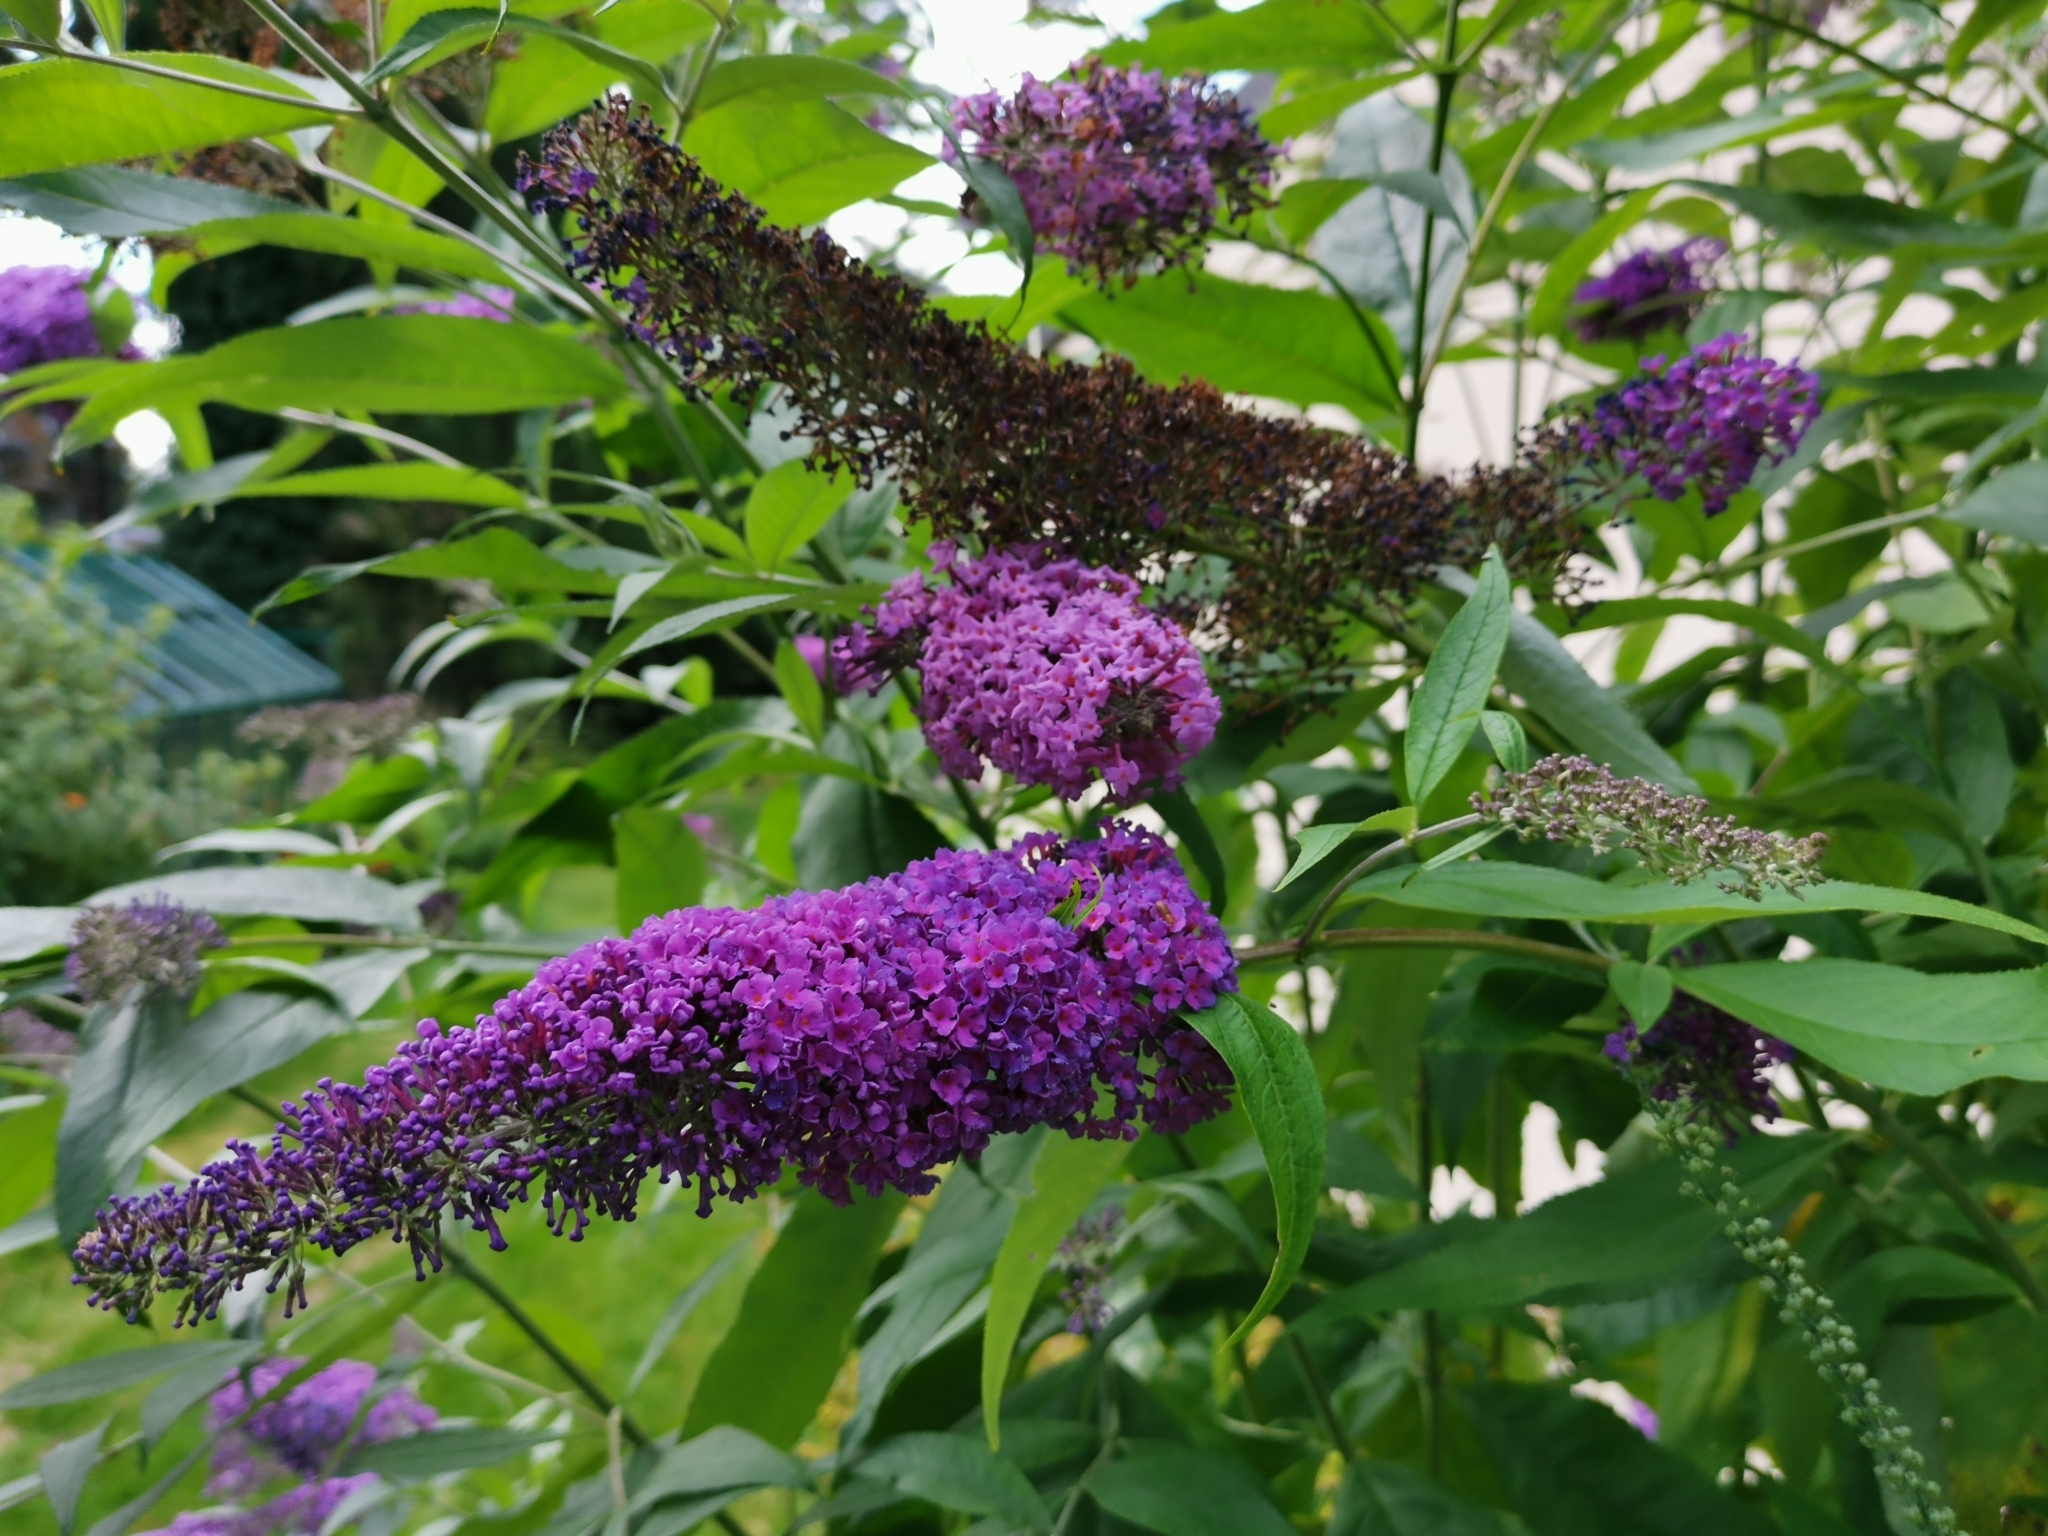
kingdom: Plantae
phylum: Tracheophyta
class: Magnoliopsida
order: Lamiales
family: Scrophulariaceae
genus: Buddleja
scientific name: Buddleja davidii
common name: Butterfly-bush
